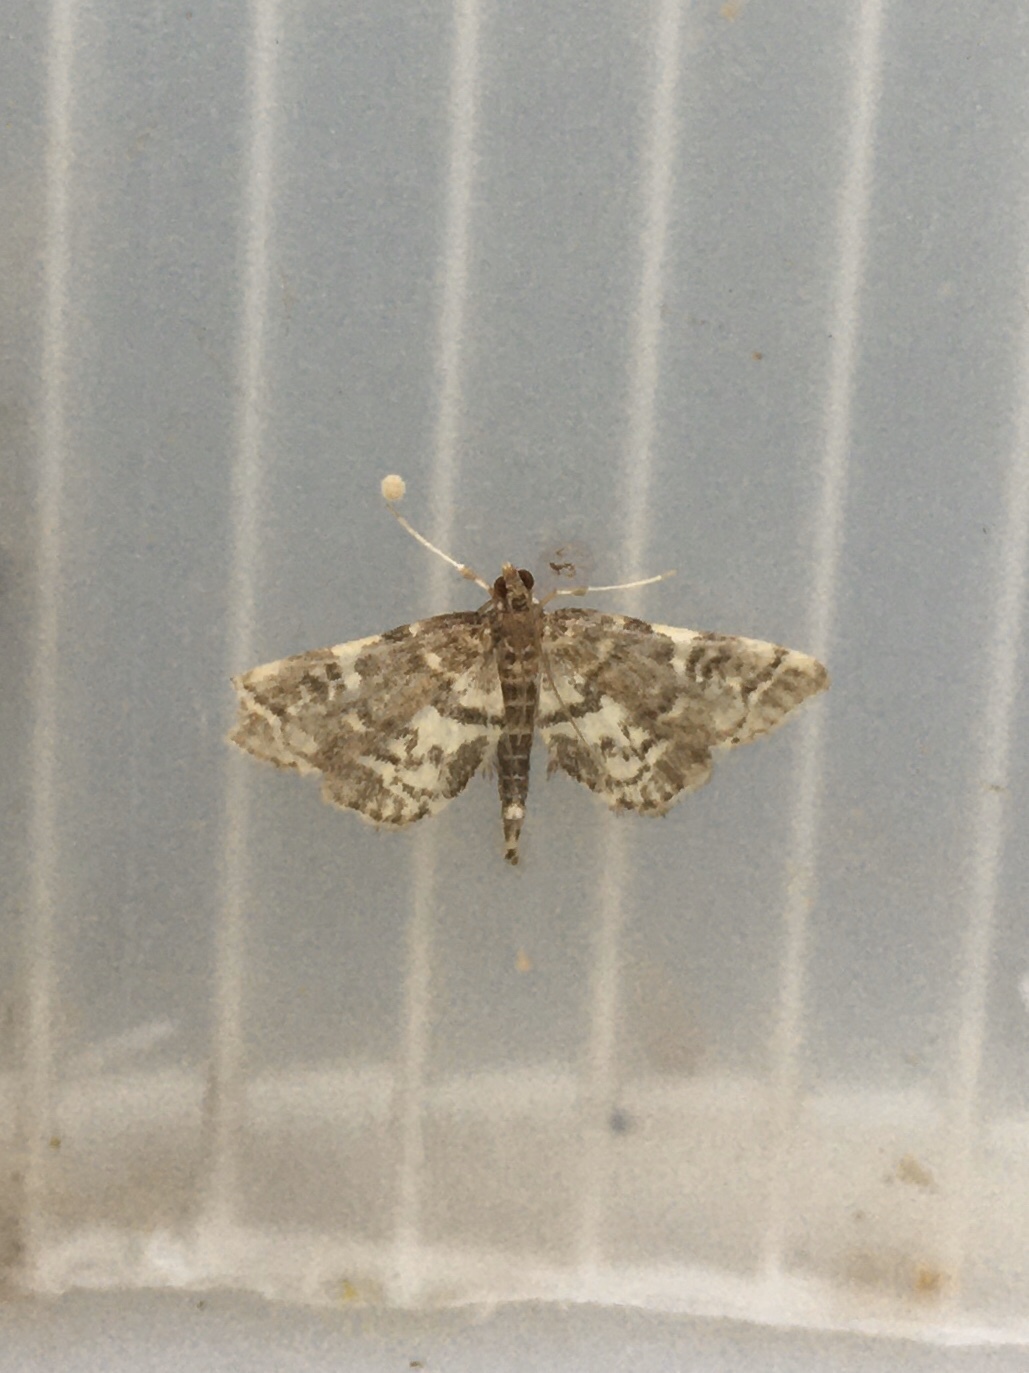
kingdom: Animalia
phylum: Arthropoda
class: Insecta
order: Lepidoptera
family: Crambidae
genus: Anageshna
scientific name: Anageshna primordialis
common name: Yellow-spotted webworm moth
